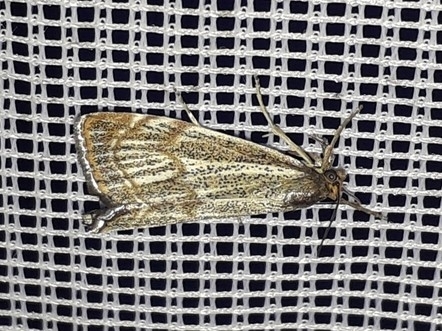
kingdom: Animalia
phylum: Arthropoda
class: Insecta
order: Lepidoptera
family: Crambidae
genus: Thisanotia
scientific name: Thisanotia chrysonuchella
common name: Powdered grass-veneer
